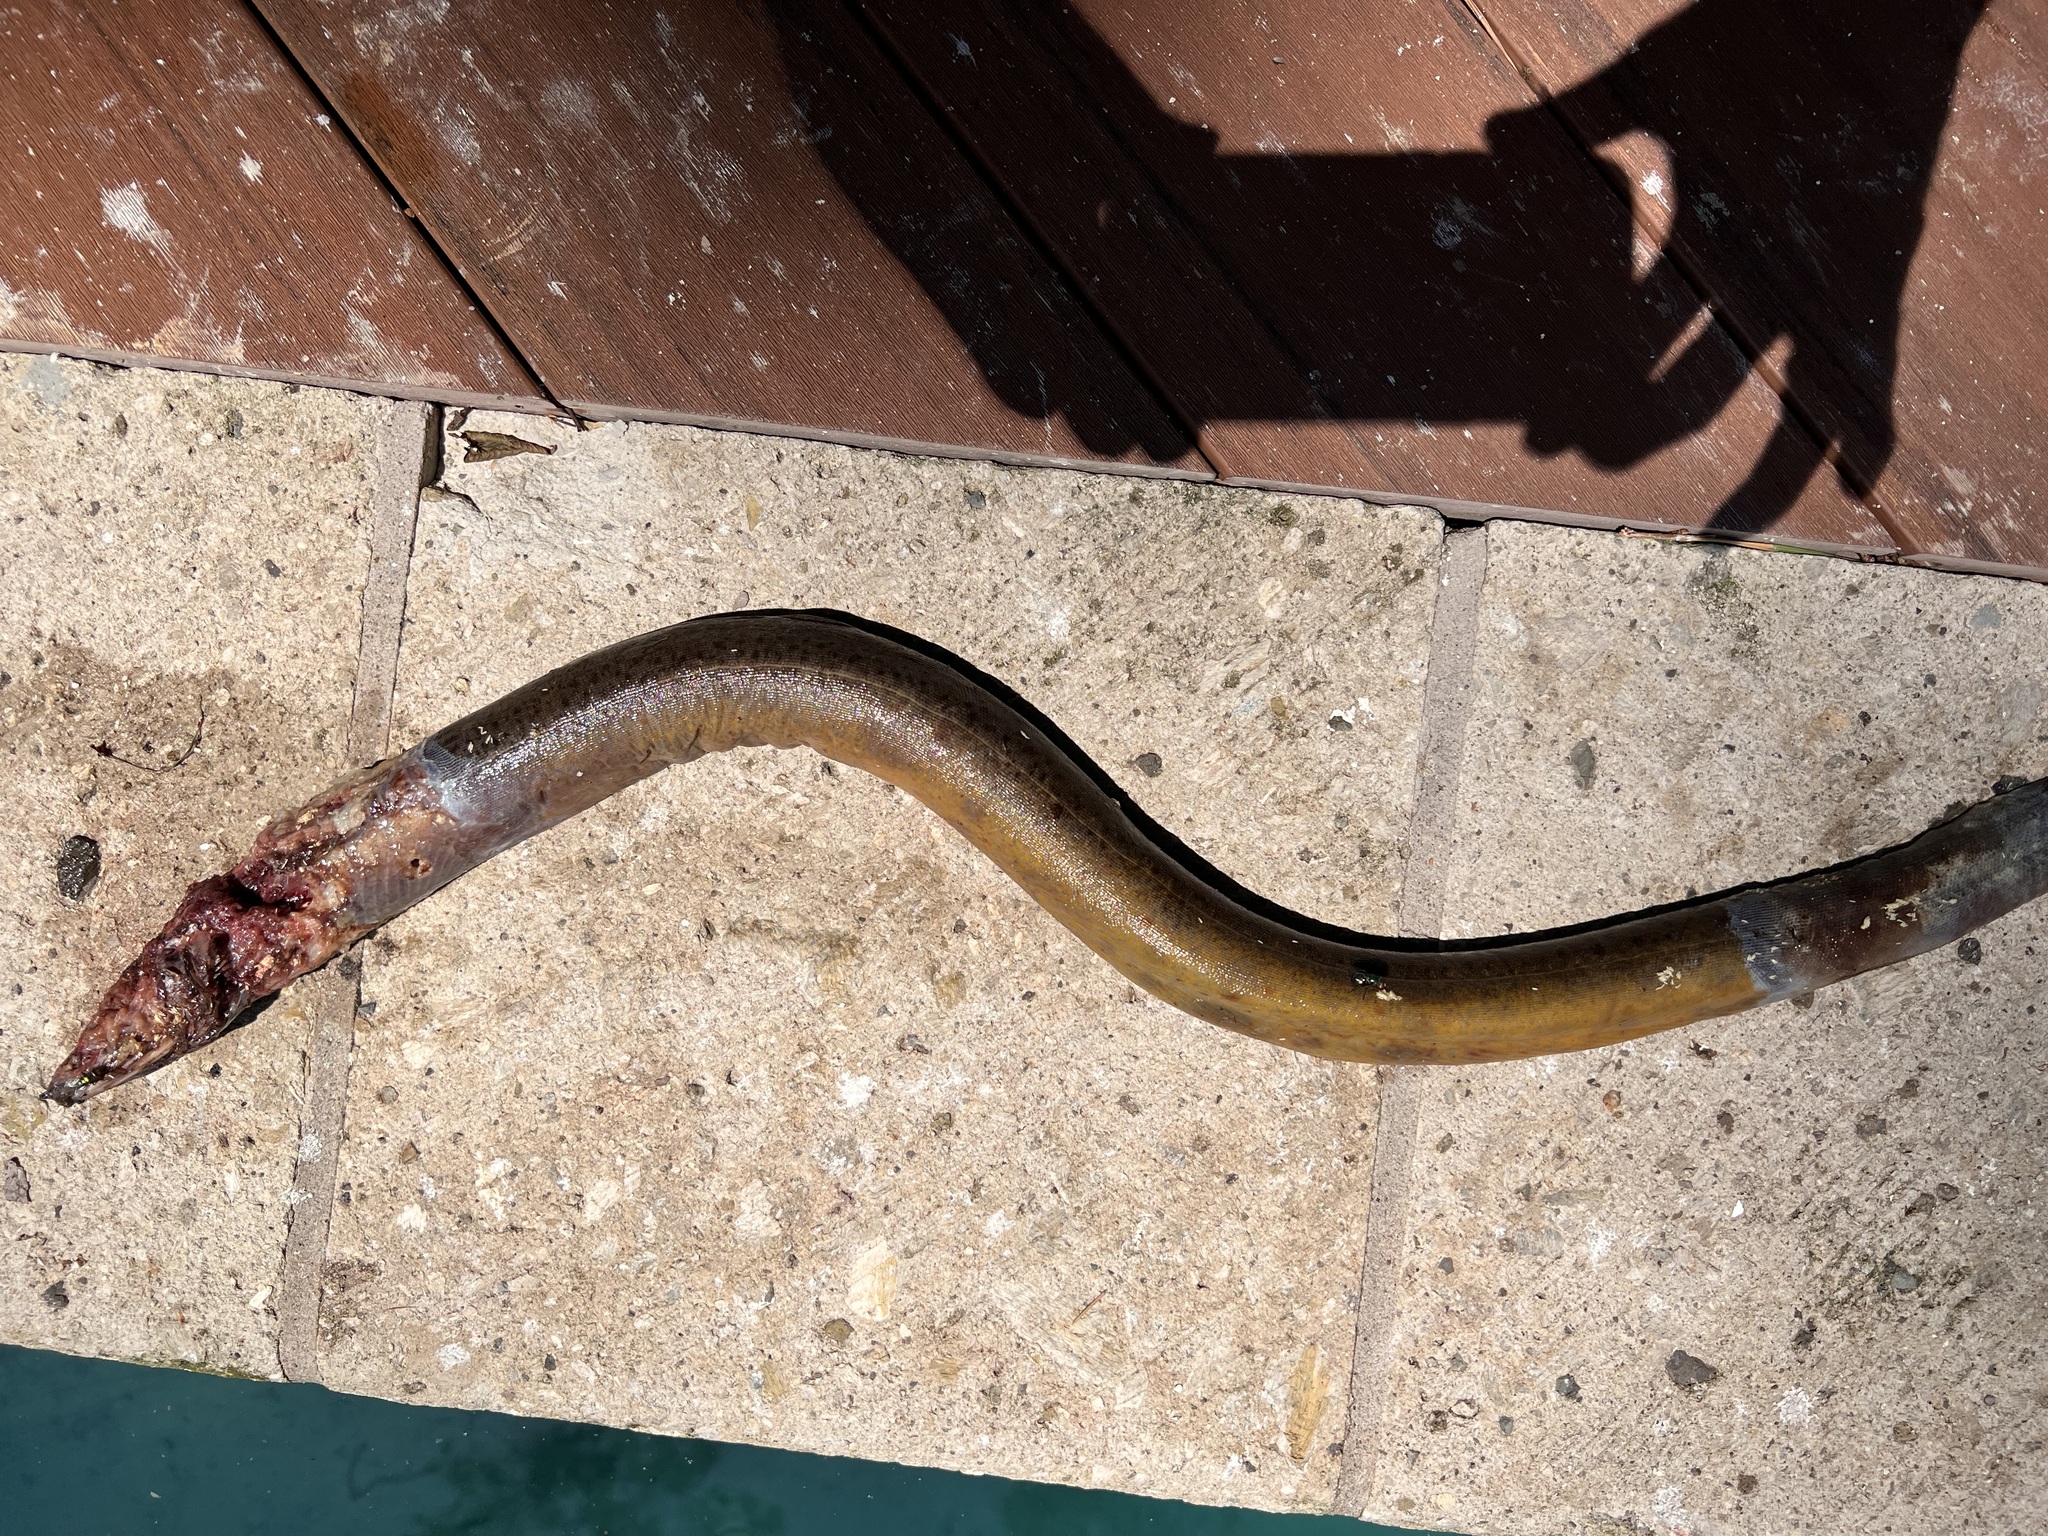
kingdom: Animalia
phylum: Chordata
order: Synbranchiformes
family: Synbranchidae
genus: Monopterus
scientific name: Monopterus
